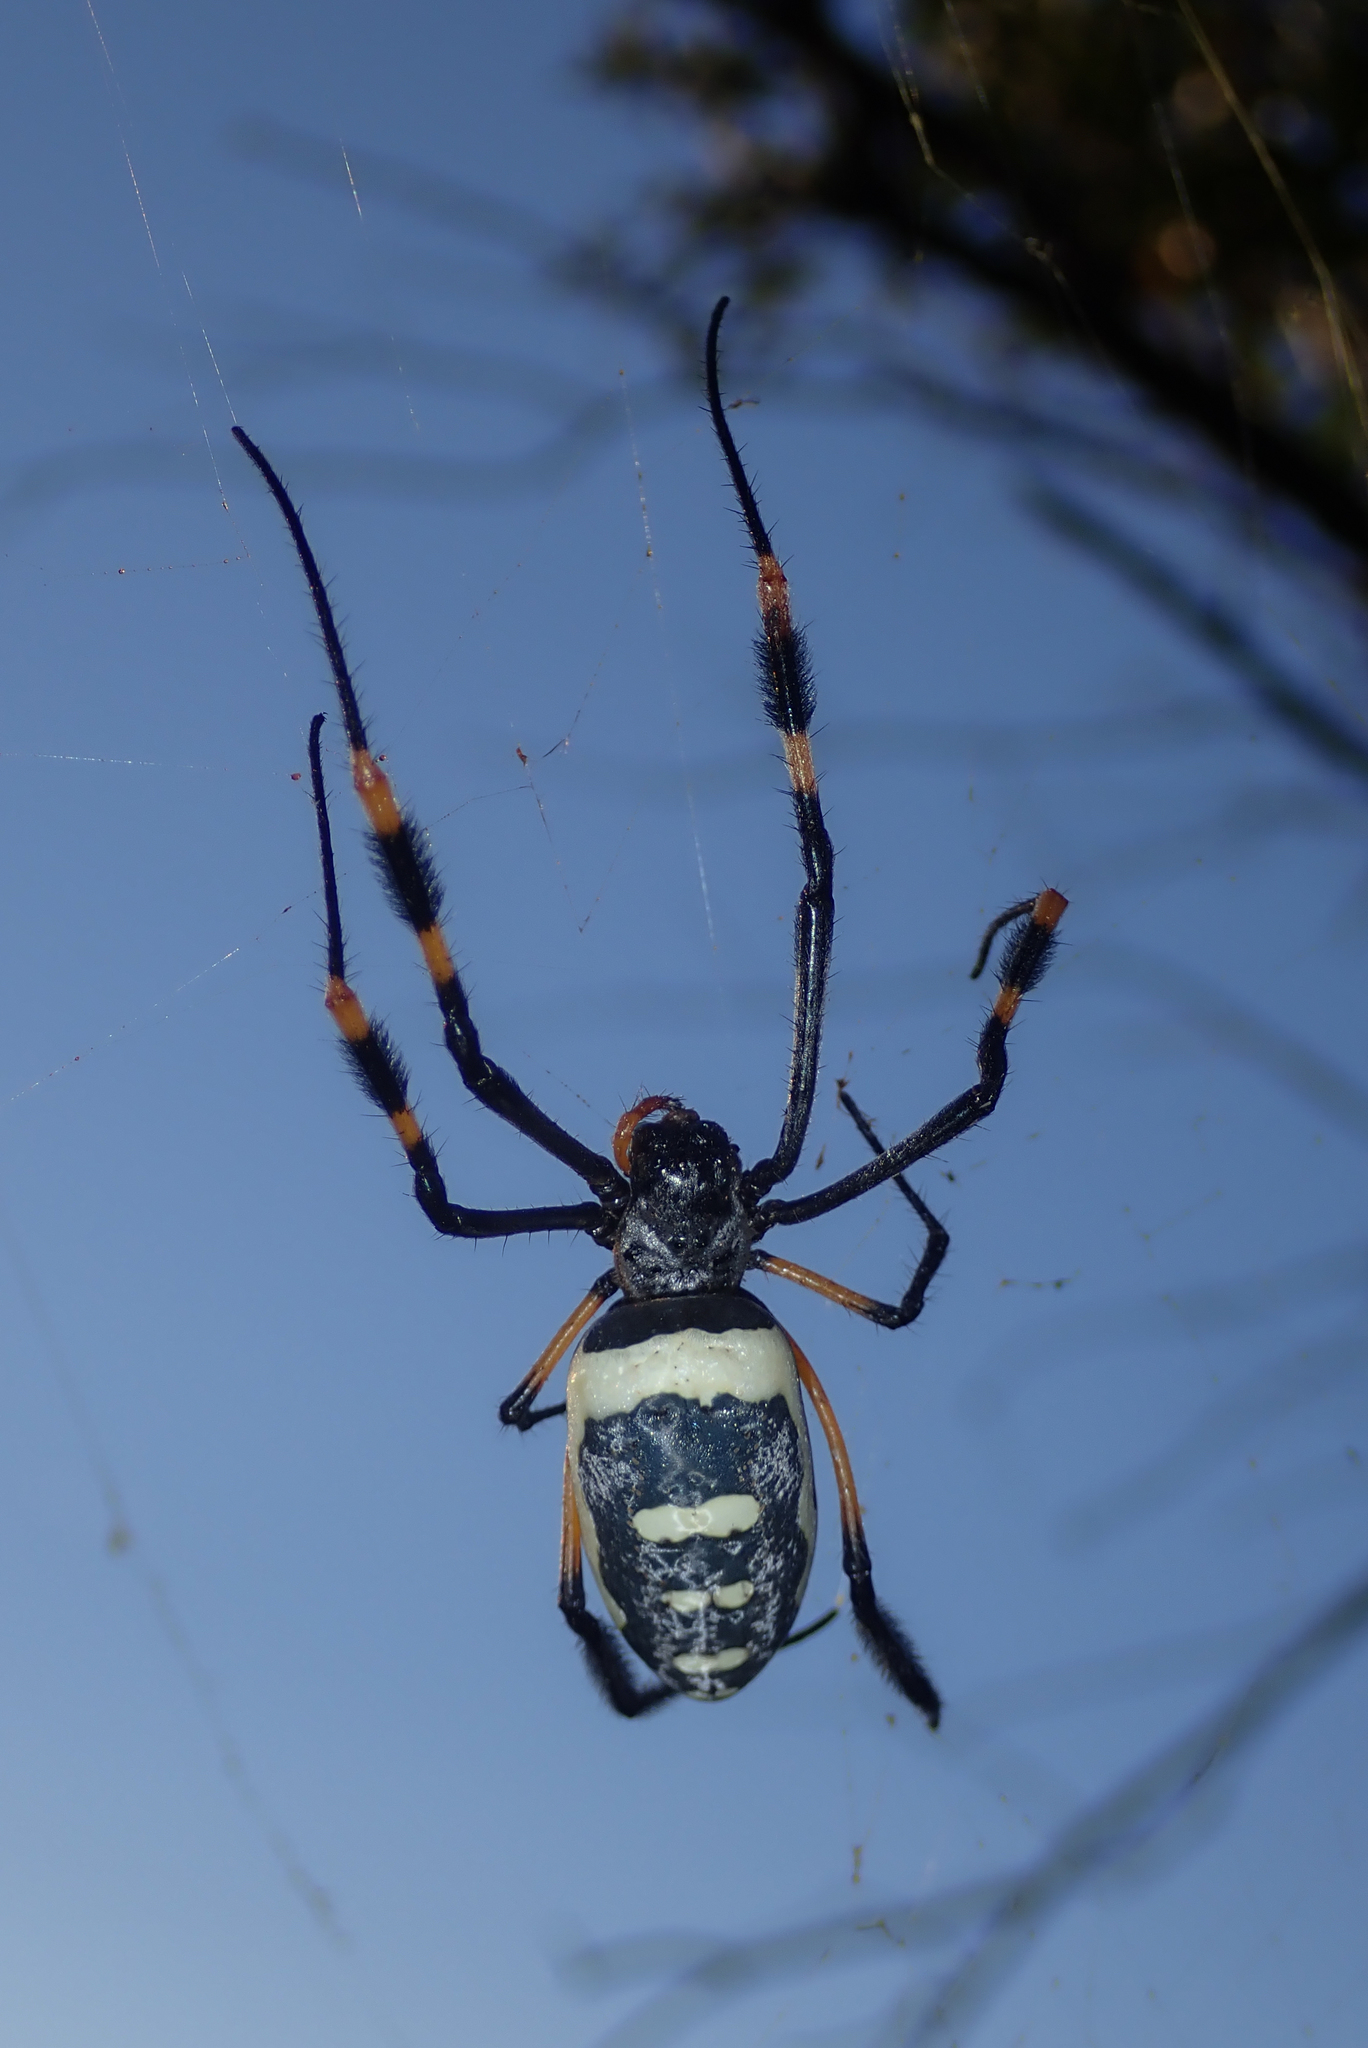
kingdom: Animalia
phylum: Arthropoda
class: Arachnida
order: Araneae
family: Araneidae
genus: Trichonephila
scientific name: Trichonephila senegalensis
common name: Banded golden orb weaver
